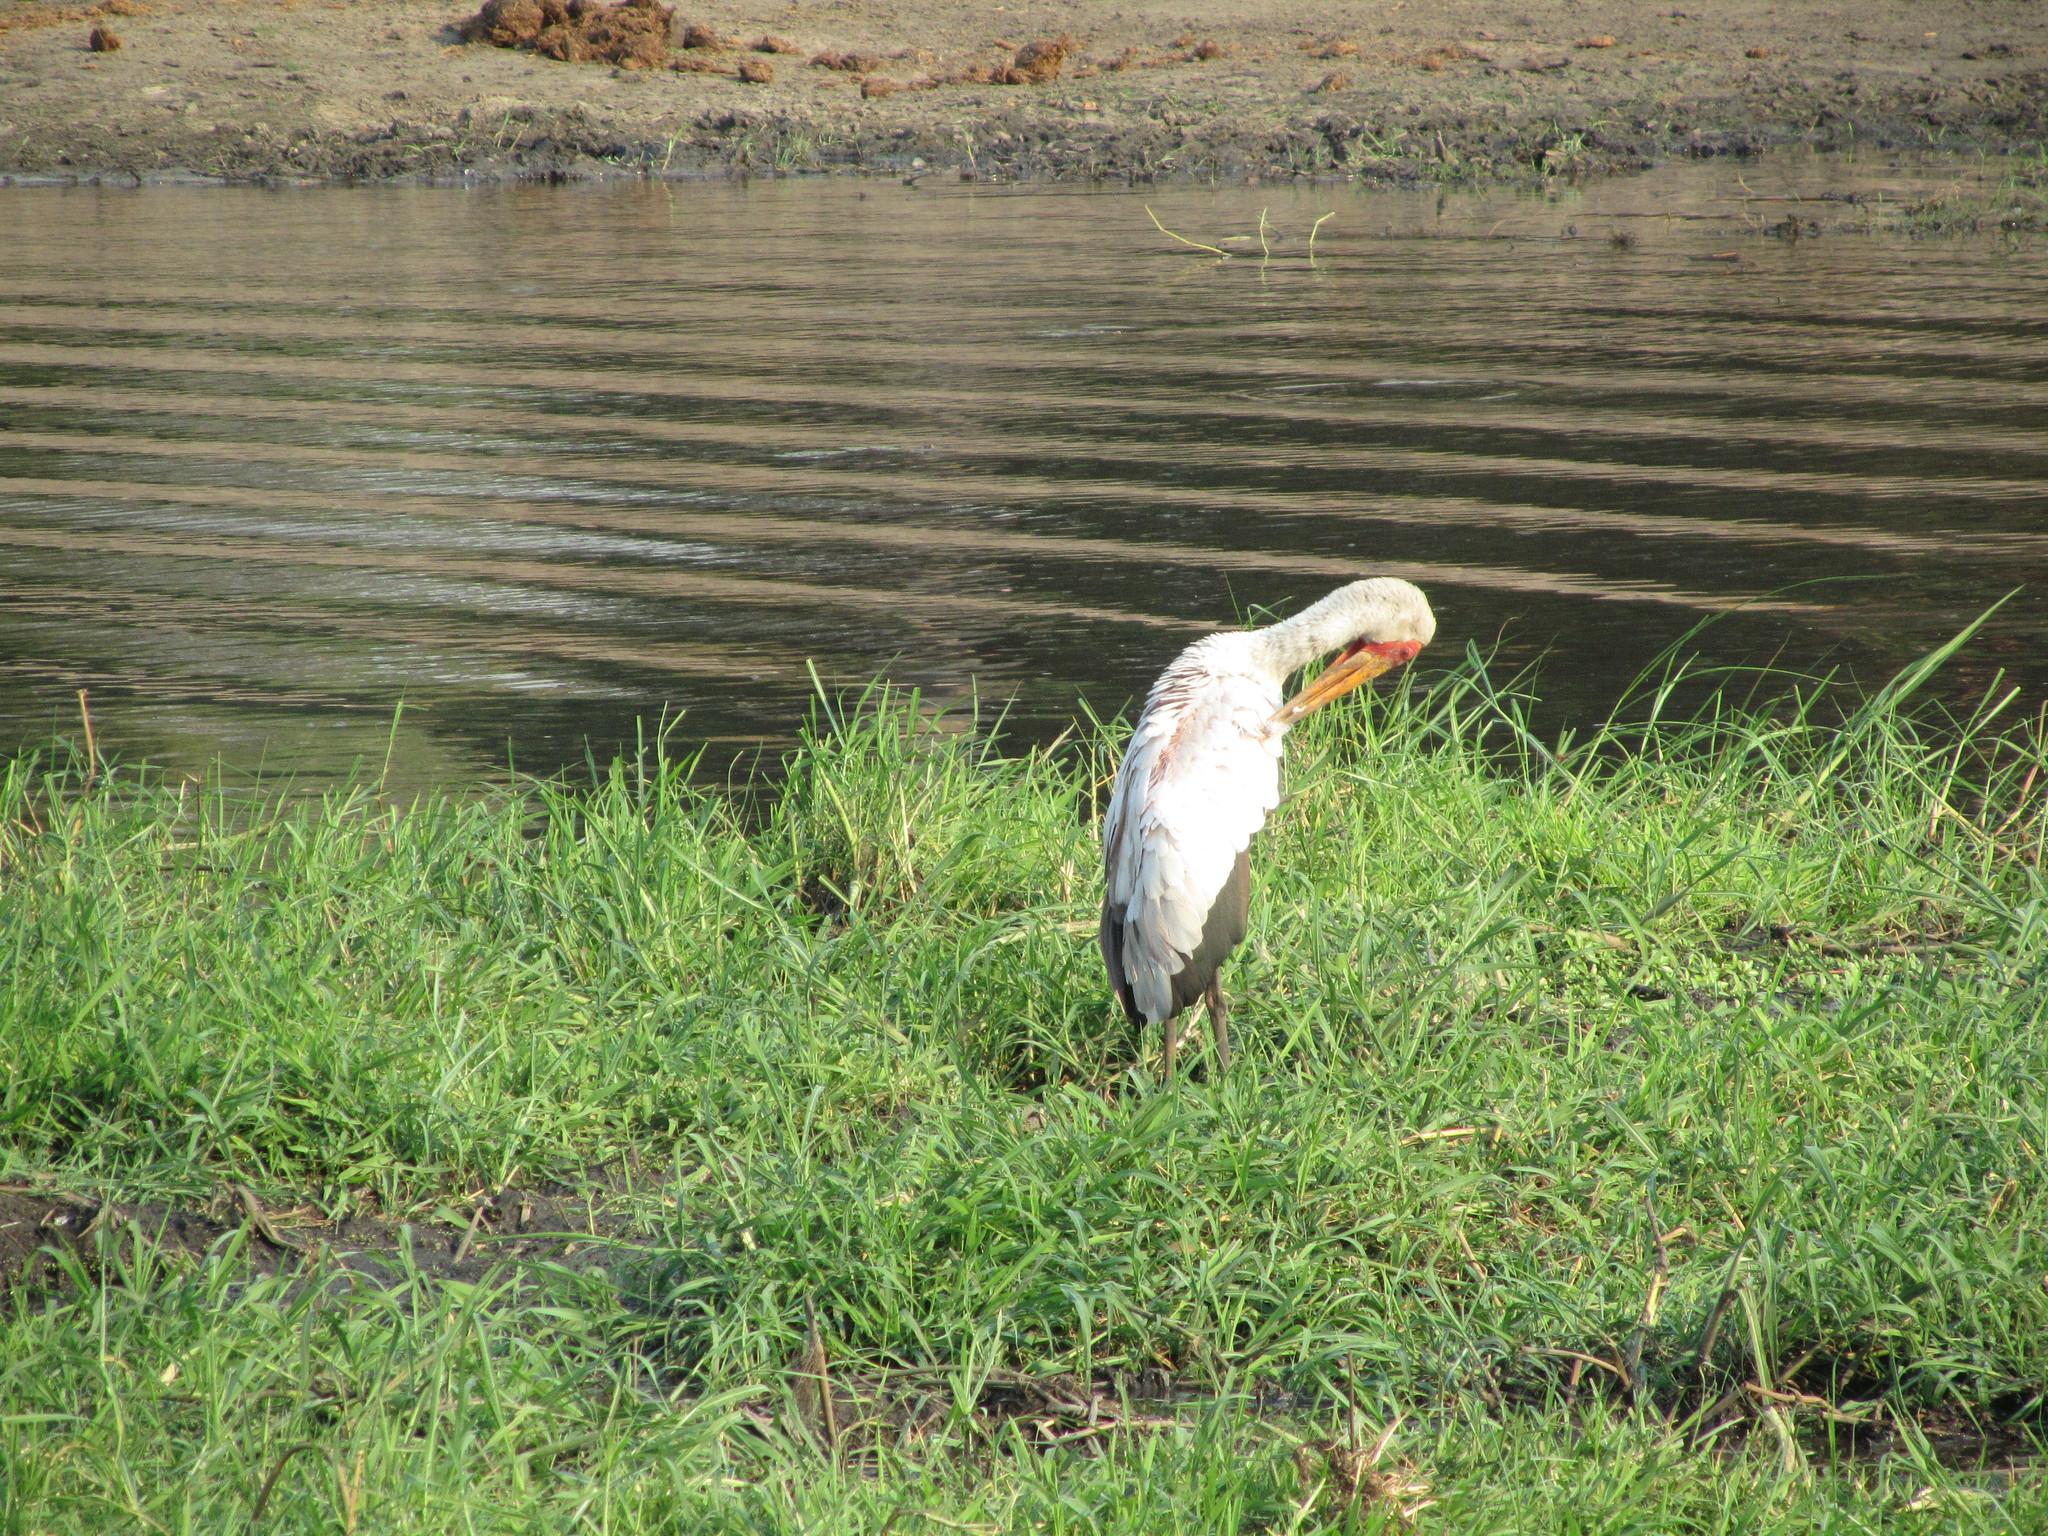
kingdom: Animalia
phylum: Chordata
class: Aves
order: Ciconiiformes
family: Ciconiidae
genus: Mycteria
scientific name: Mycteria ibis
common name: Yellow-billed stork
